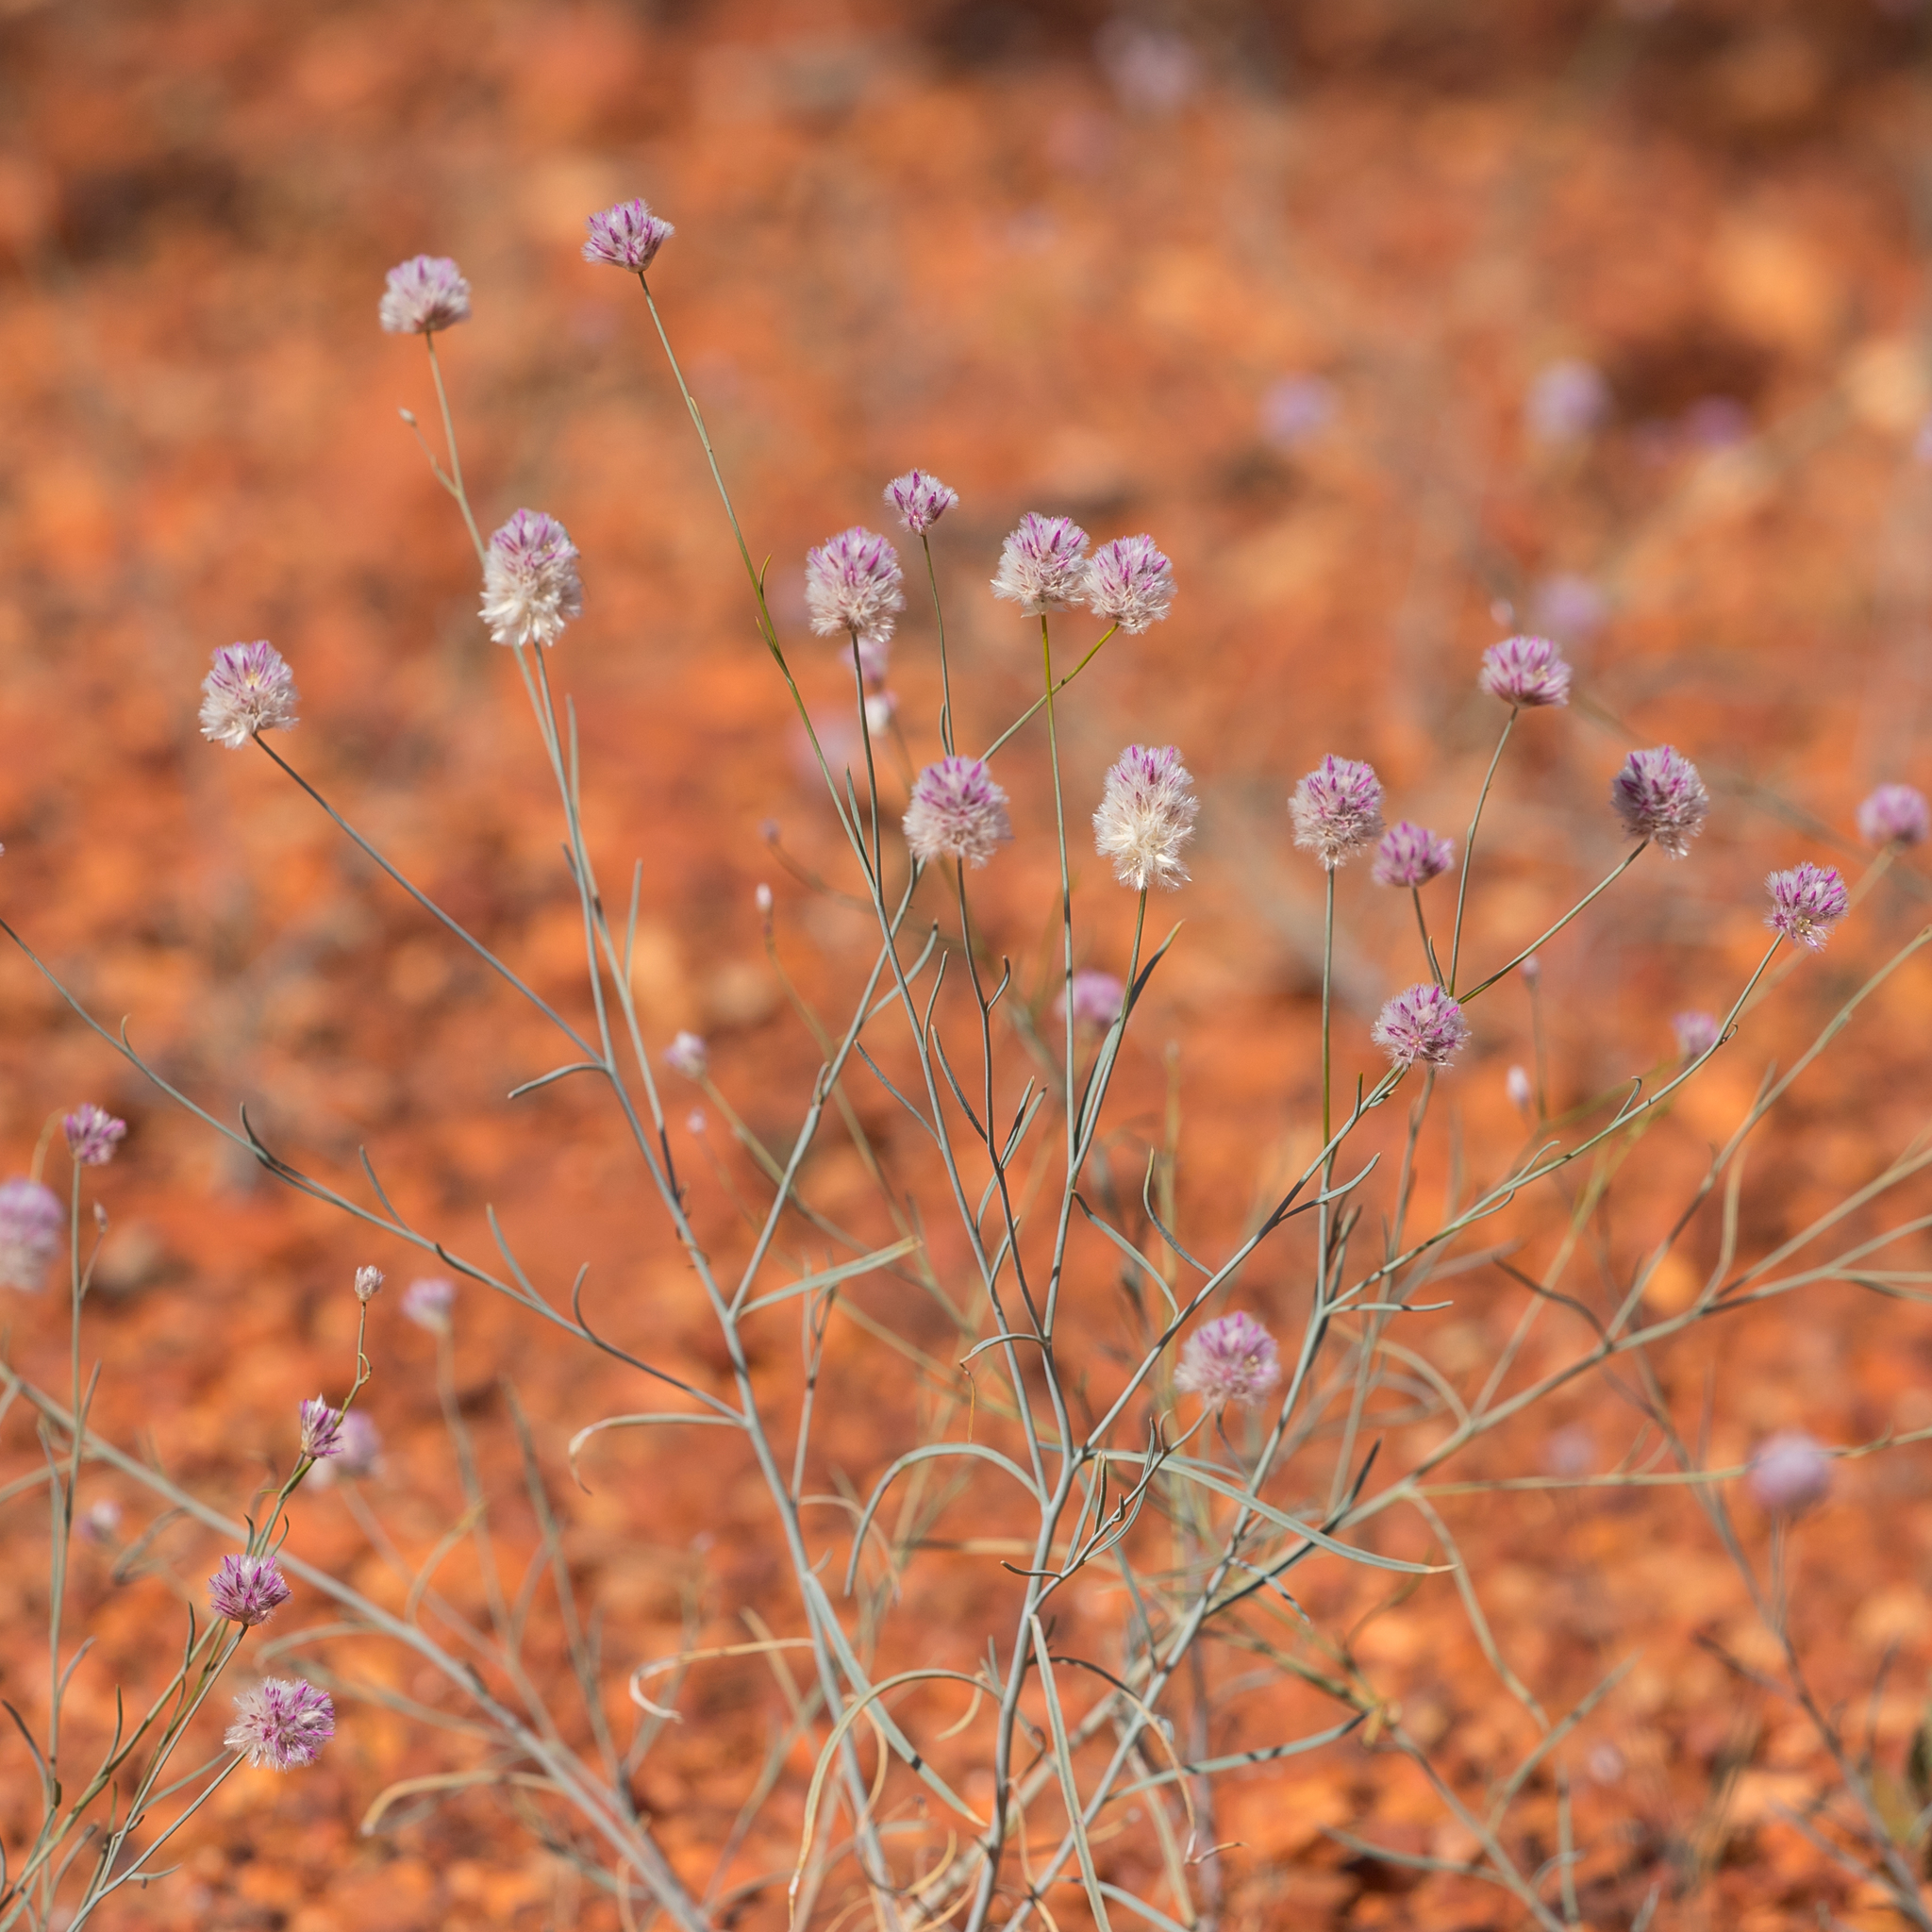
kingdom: Plantae
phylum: Tracheophyta
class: Magnoliopsida
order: Caryophyllales
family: Amaranthaceae
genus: Ptilotus
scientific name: Ptilotus schwartzii
